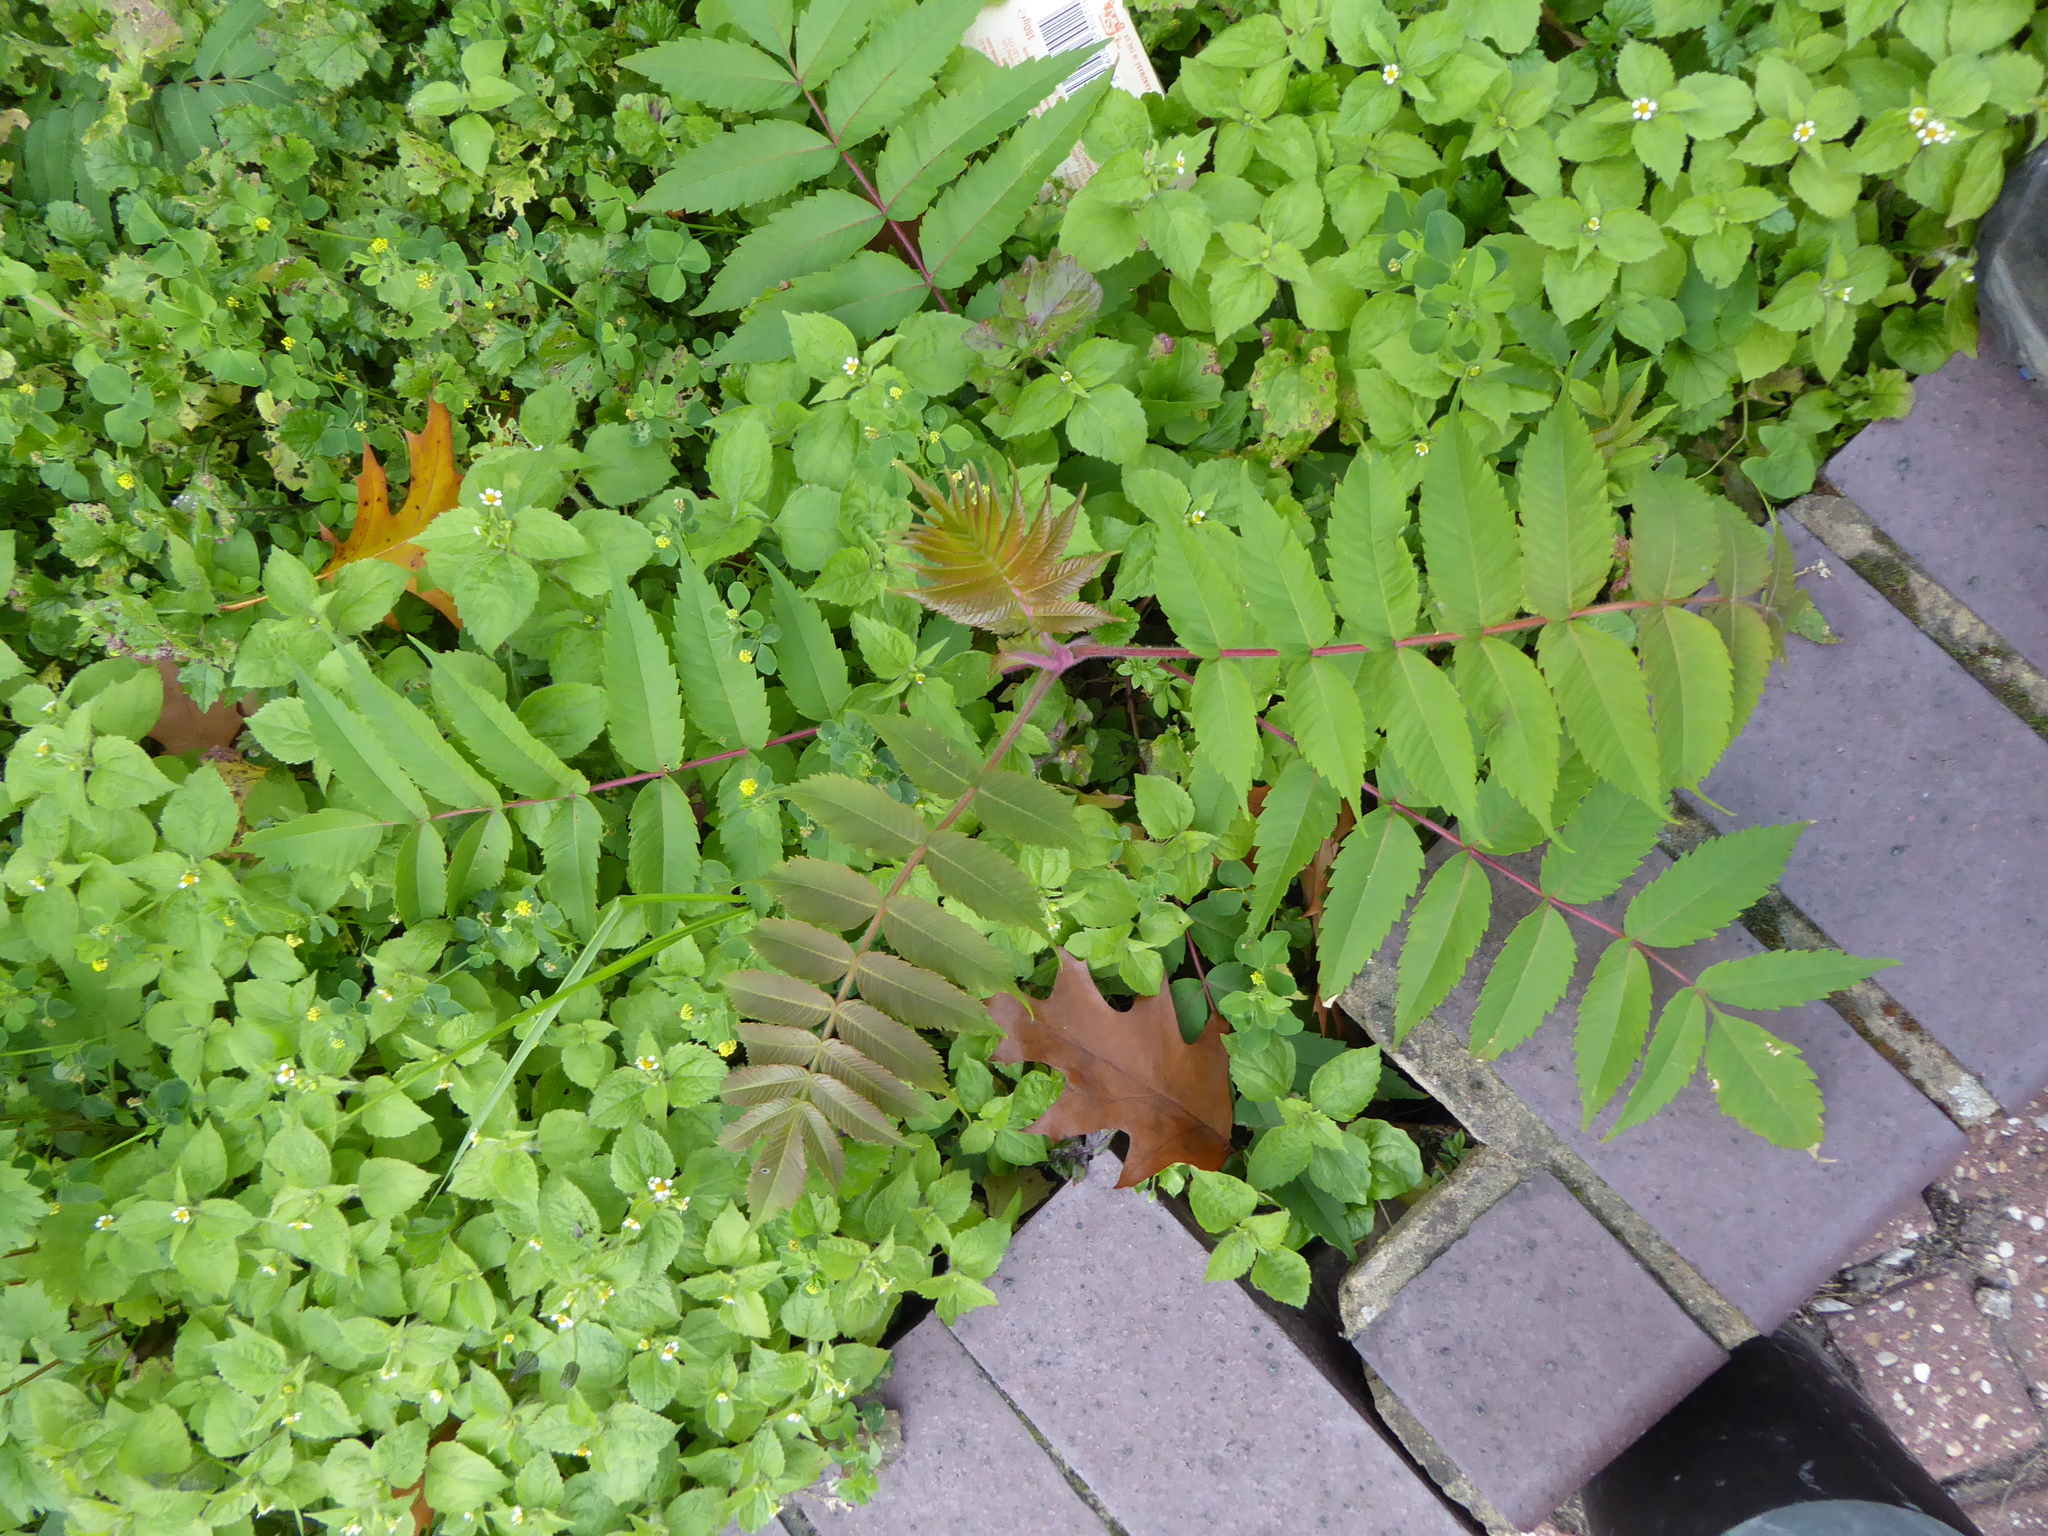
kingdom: Plantae
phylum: Tracheophyta
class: Magnoliopsida
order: Sapindales
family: Anacardiaceae
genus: Rhus
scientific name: Rhus typhina
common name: Staghorn sumac
